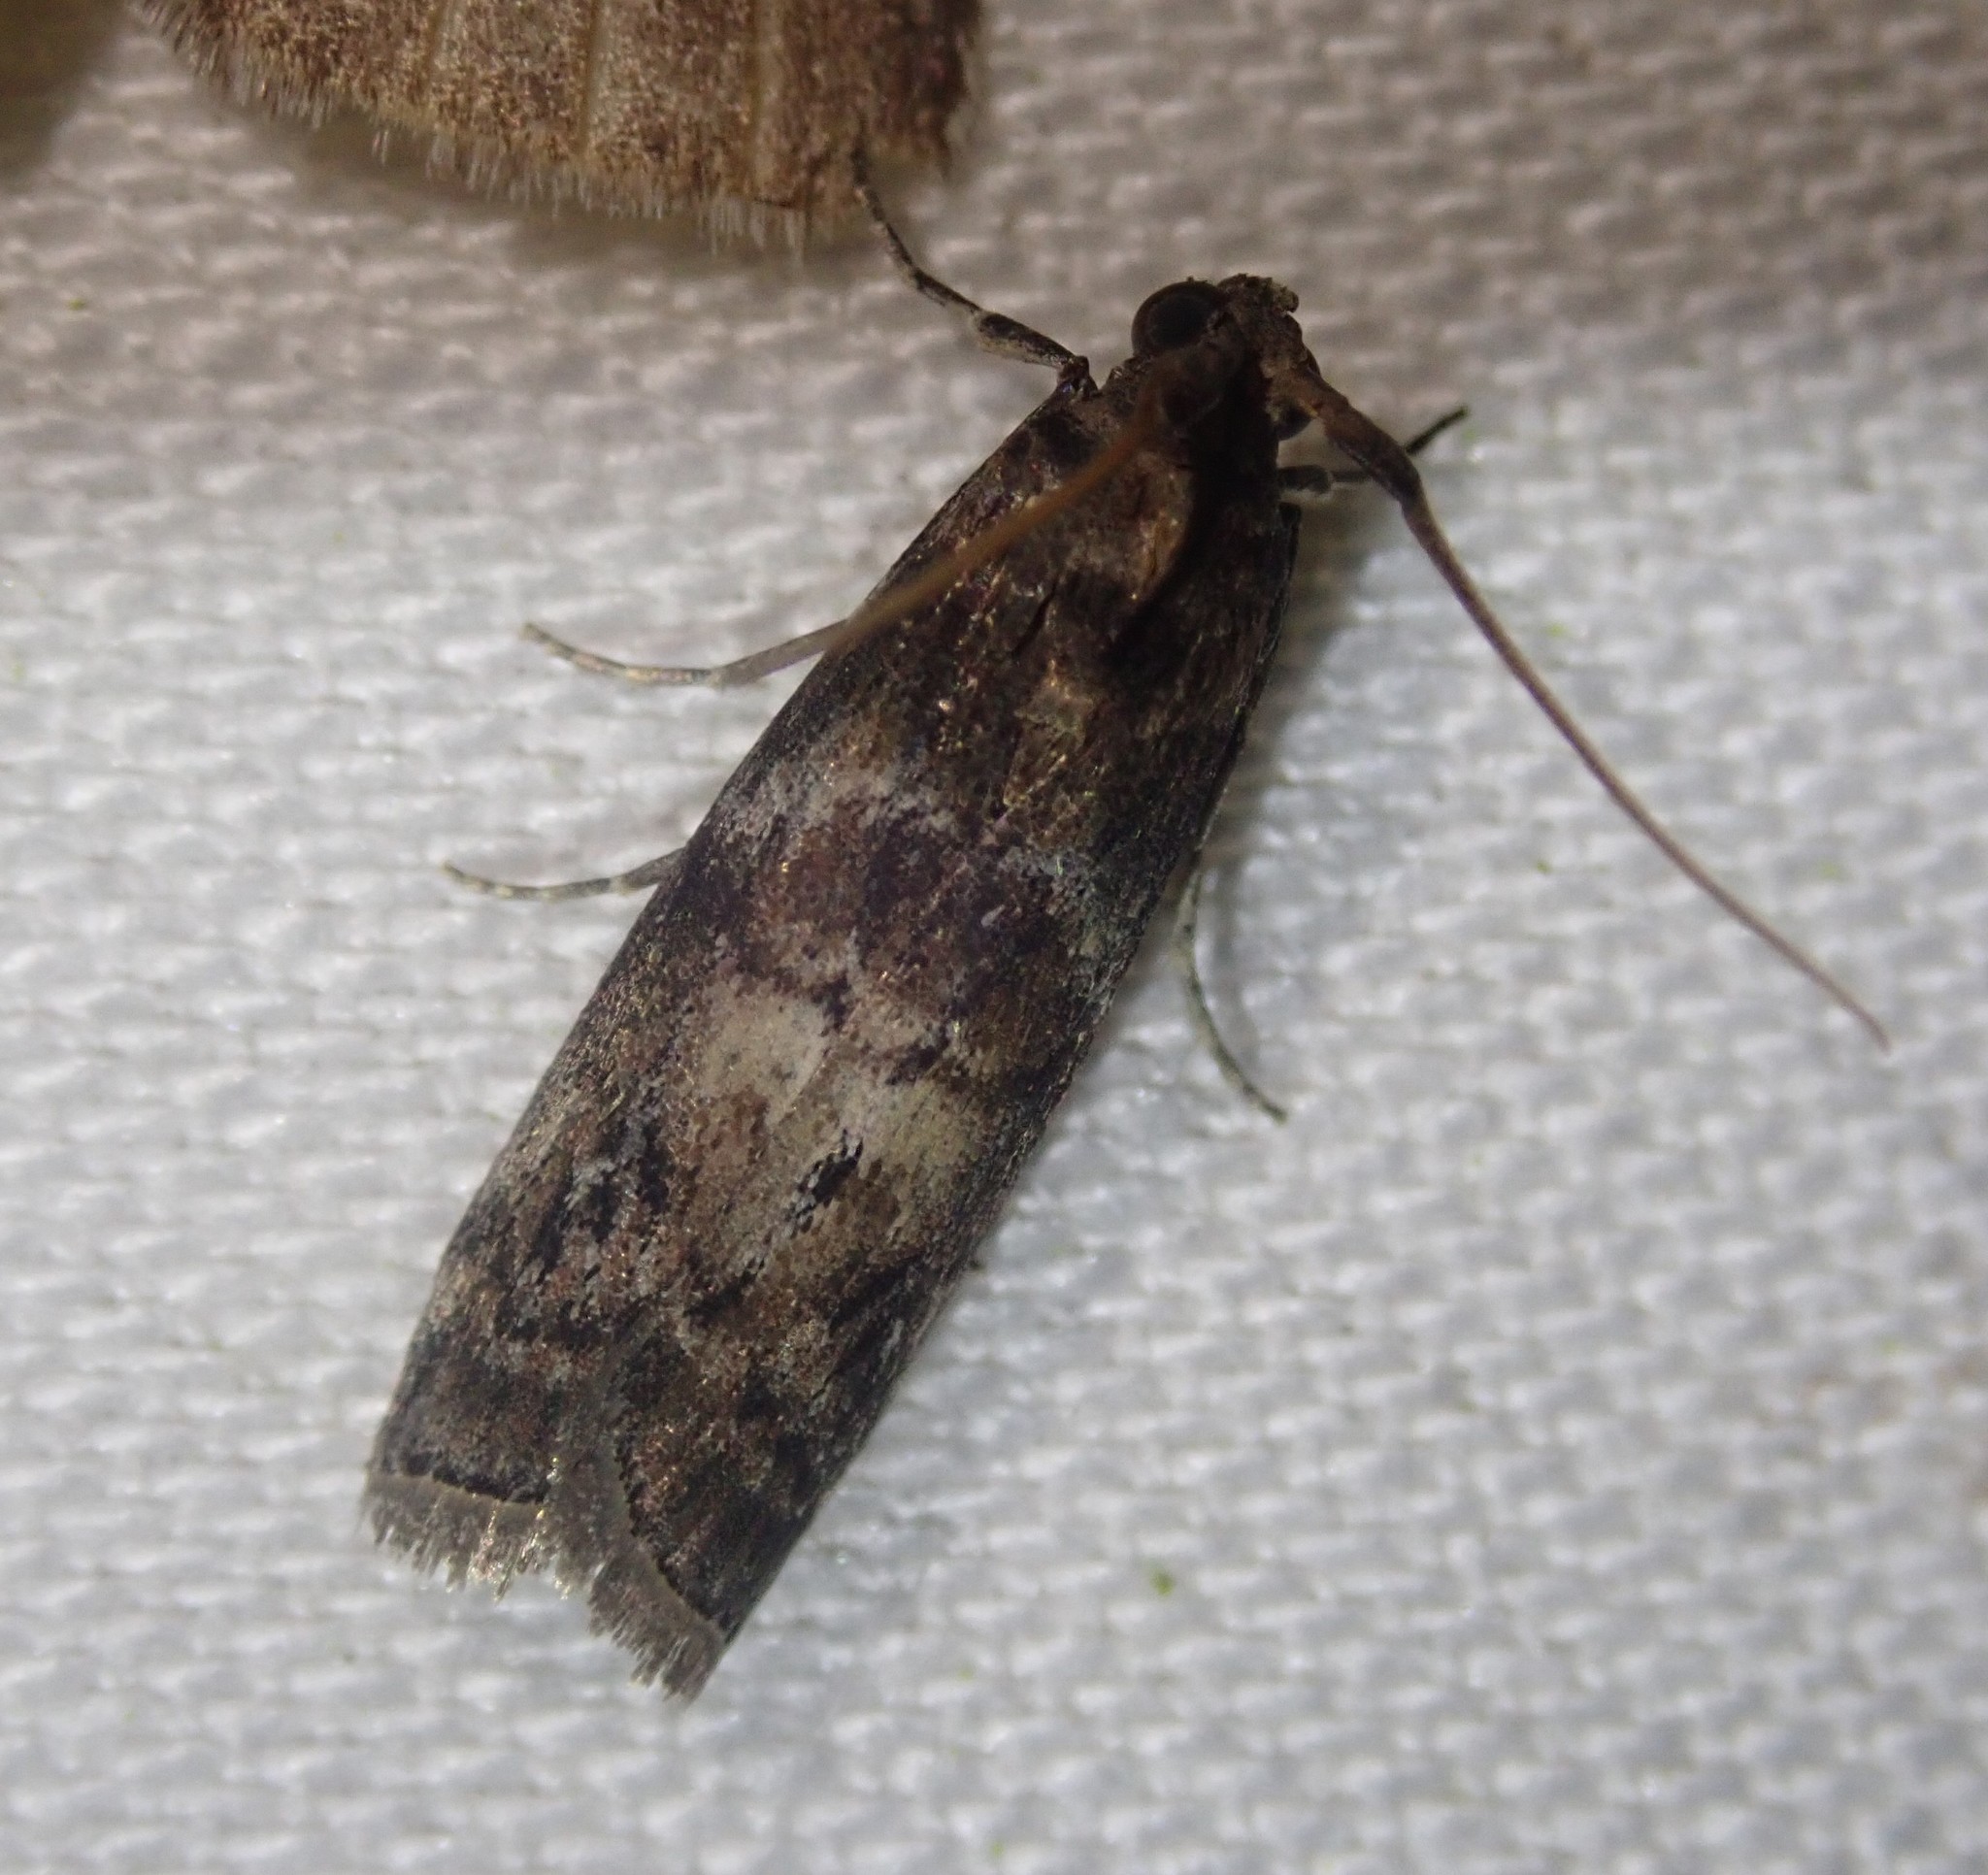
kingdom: Animalia
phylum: Arthropoda
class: Insecta
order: Lepidoptera
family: Pyralidae
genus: Phycita
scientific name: Phycita roborella
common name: Dotted oak knot-horn
